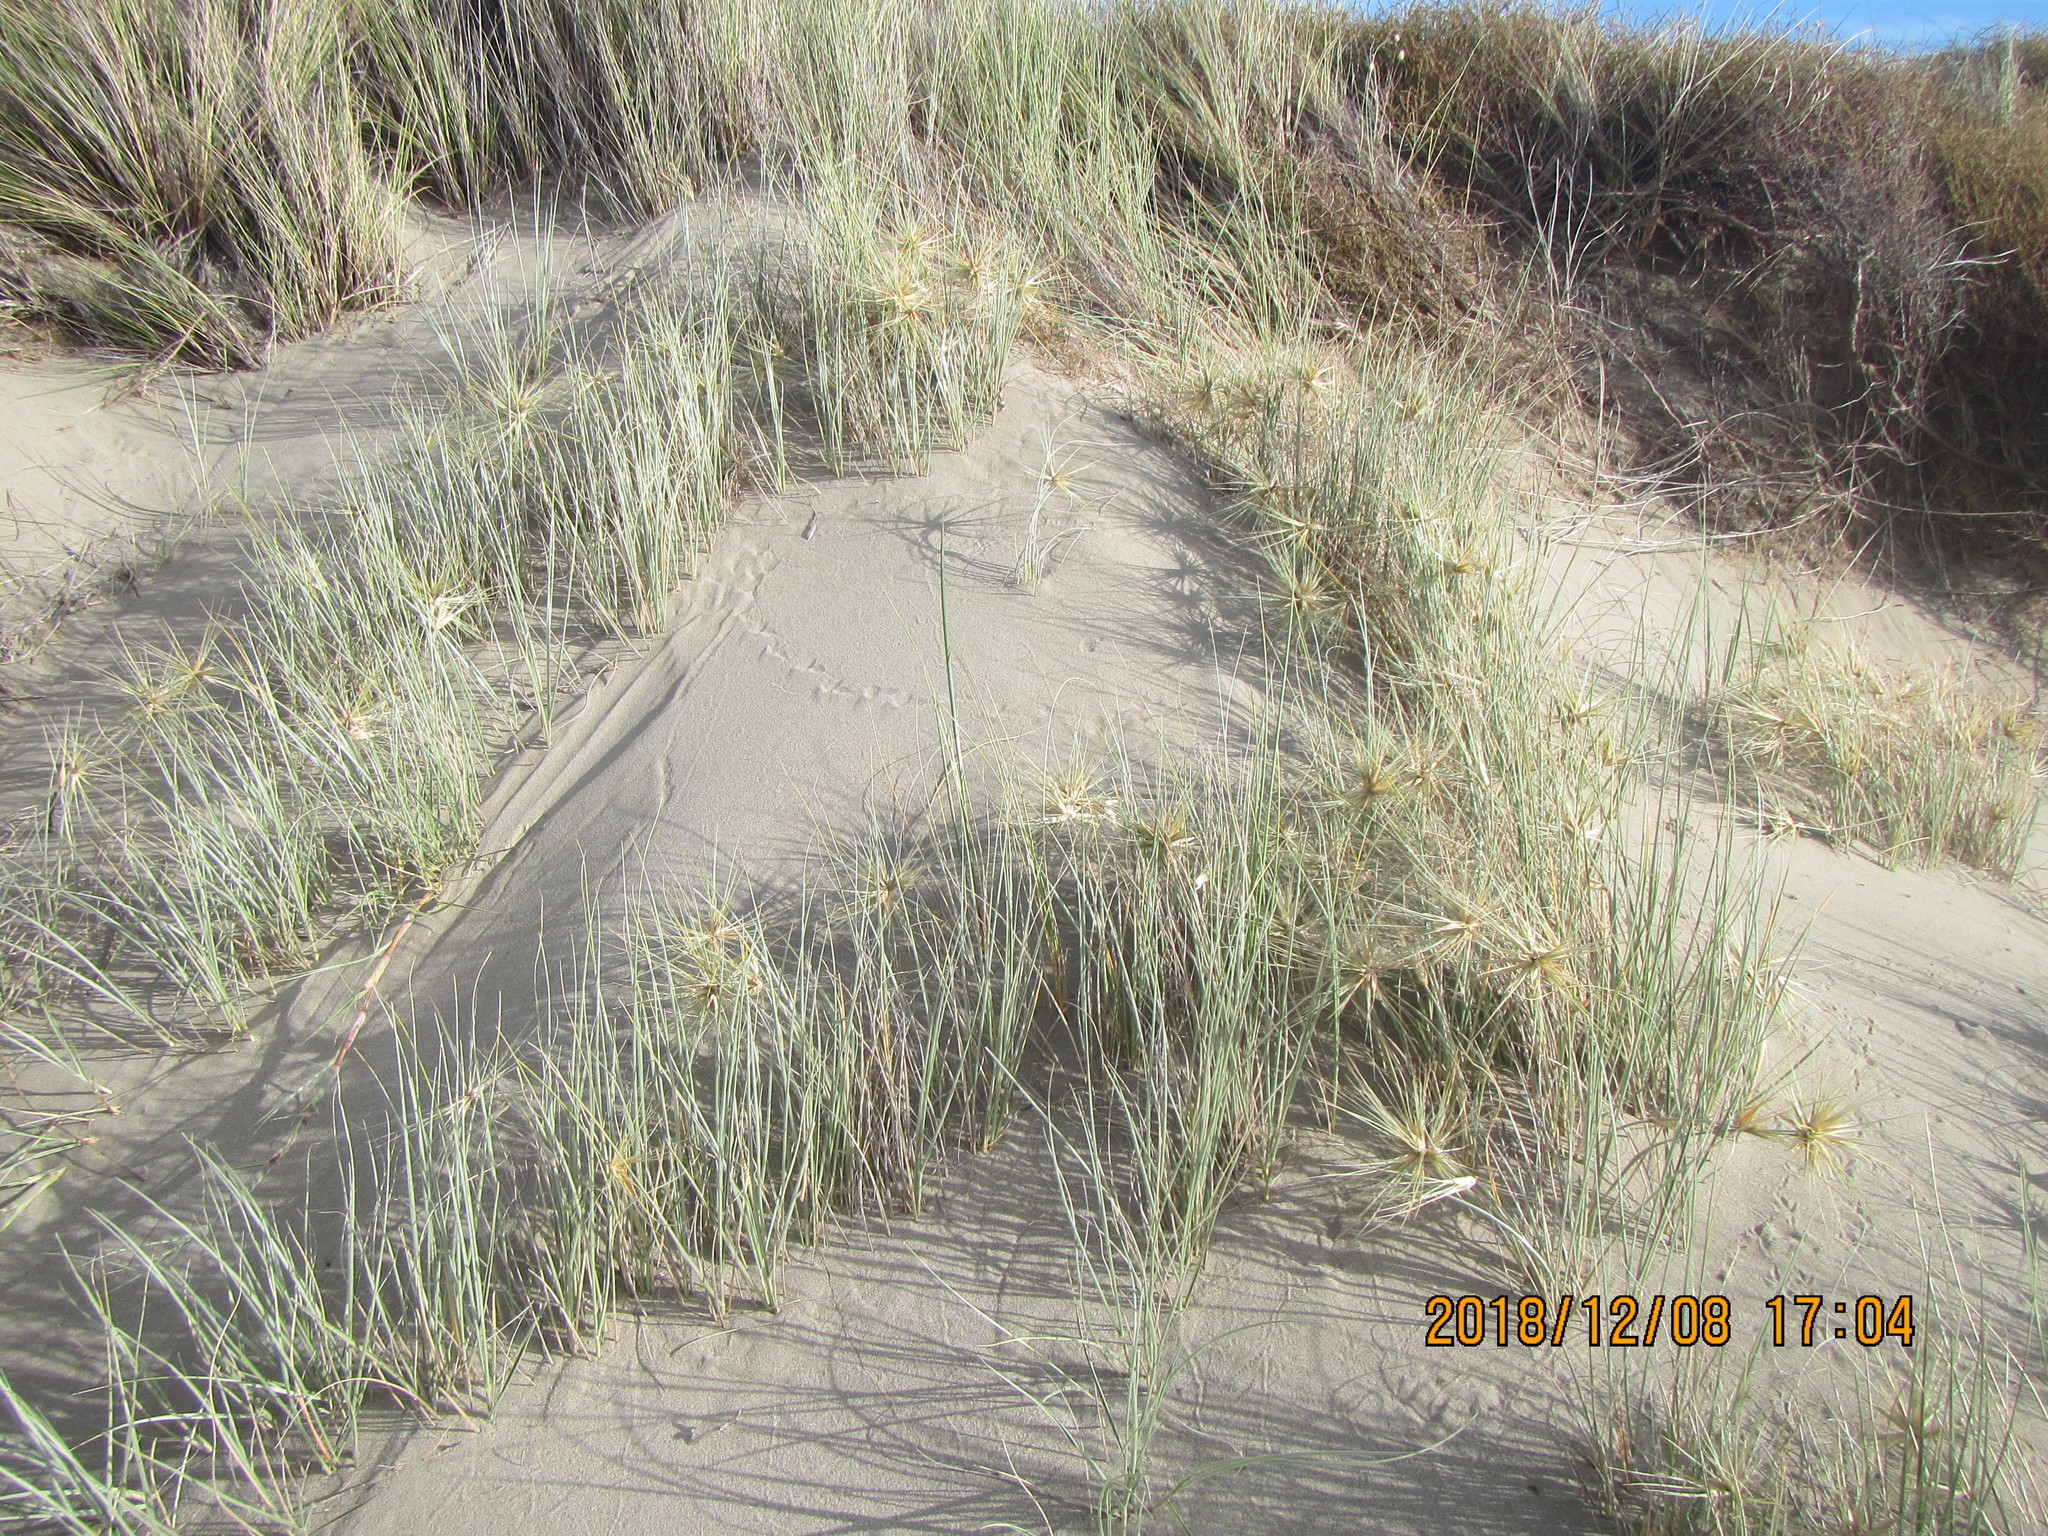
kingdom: Plantae
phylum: Tracheophyta
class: Liliopsida
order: Poales
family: Poaceae
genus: Spinifex
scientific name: Spinifex sericeus
